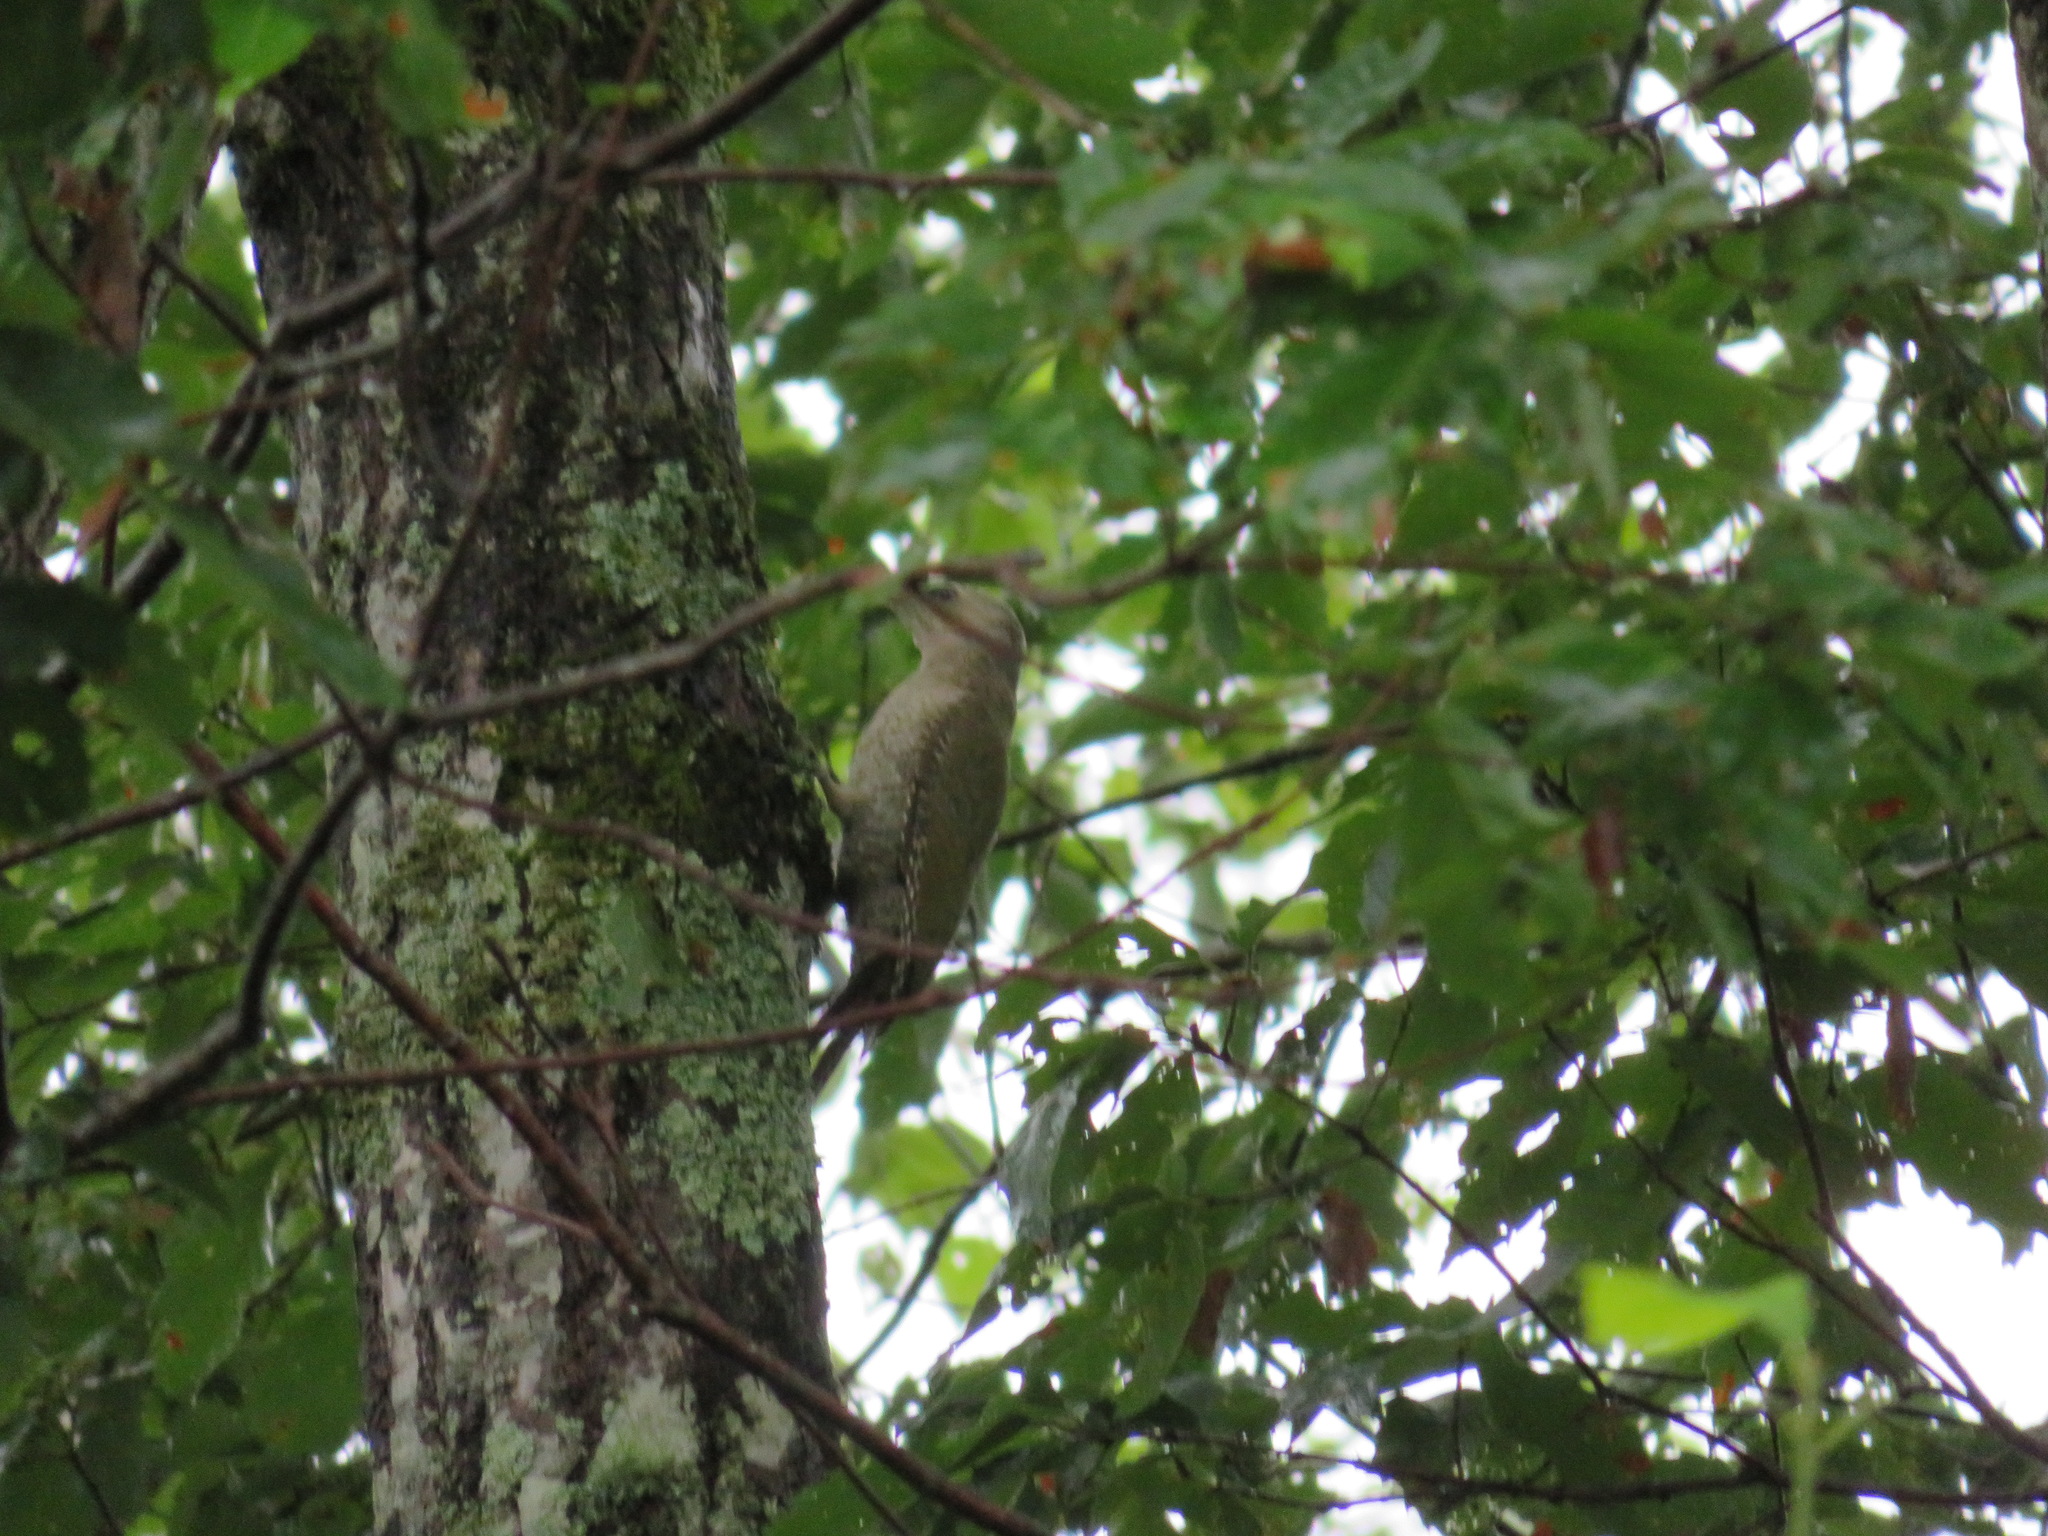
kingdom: Animalia
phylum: Chordata
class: Aves
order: Piciformes
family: Picidae
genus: Picus
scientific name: Picus canus
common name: Grey-headed woodpecker
